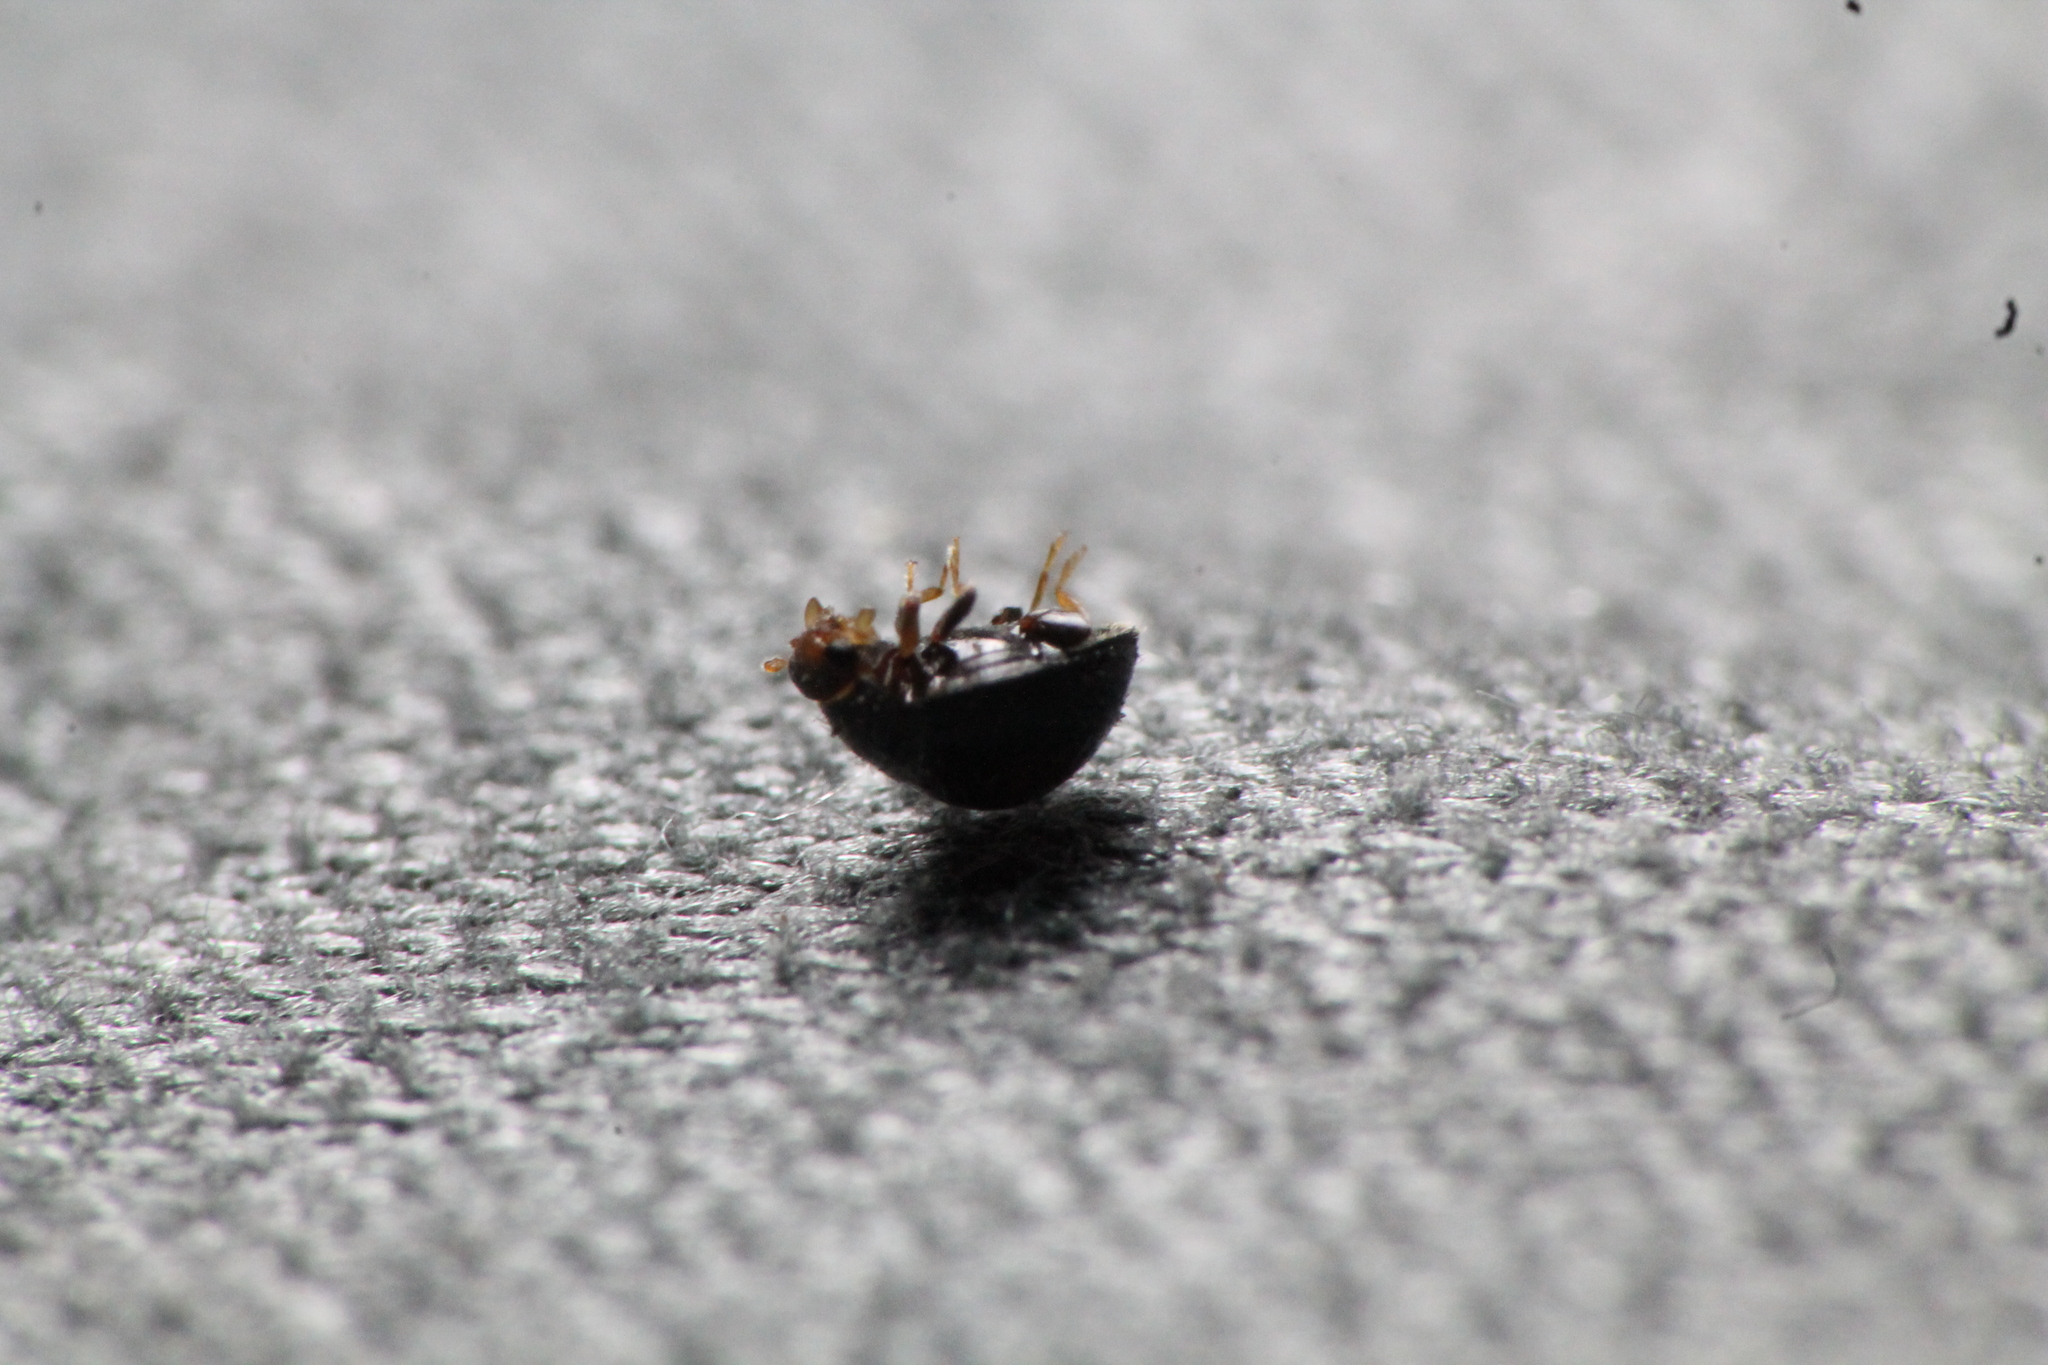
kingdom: Animalia
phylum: Arthropoda
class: Insecta
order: Coleoptera
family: Coccinellidae
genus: Serangium
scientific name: Serangium maculigerum
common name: Lady beetle
